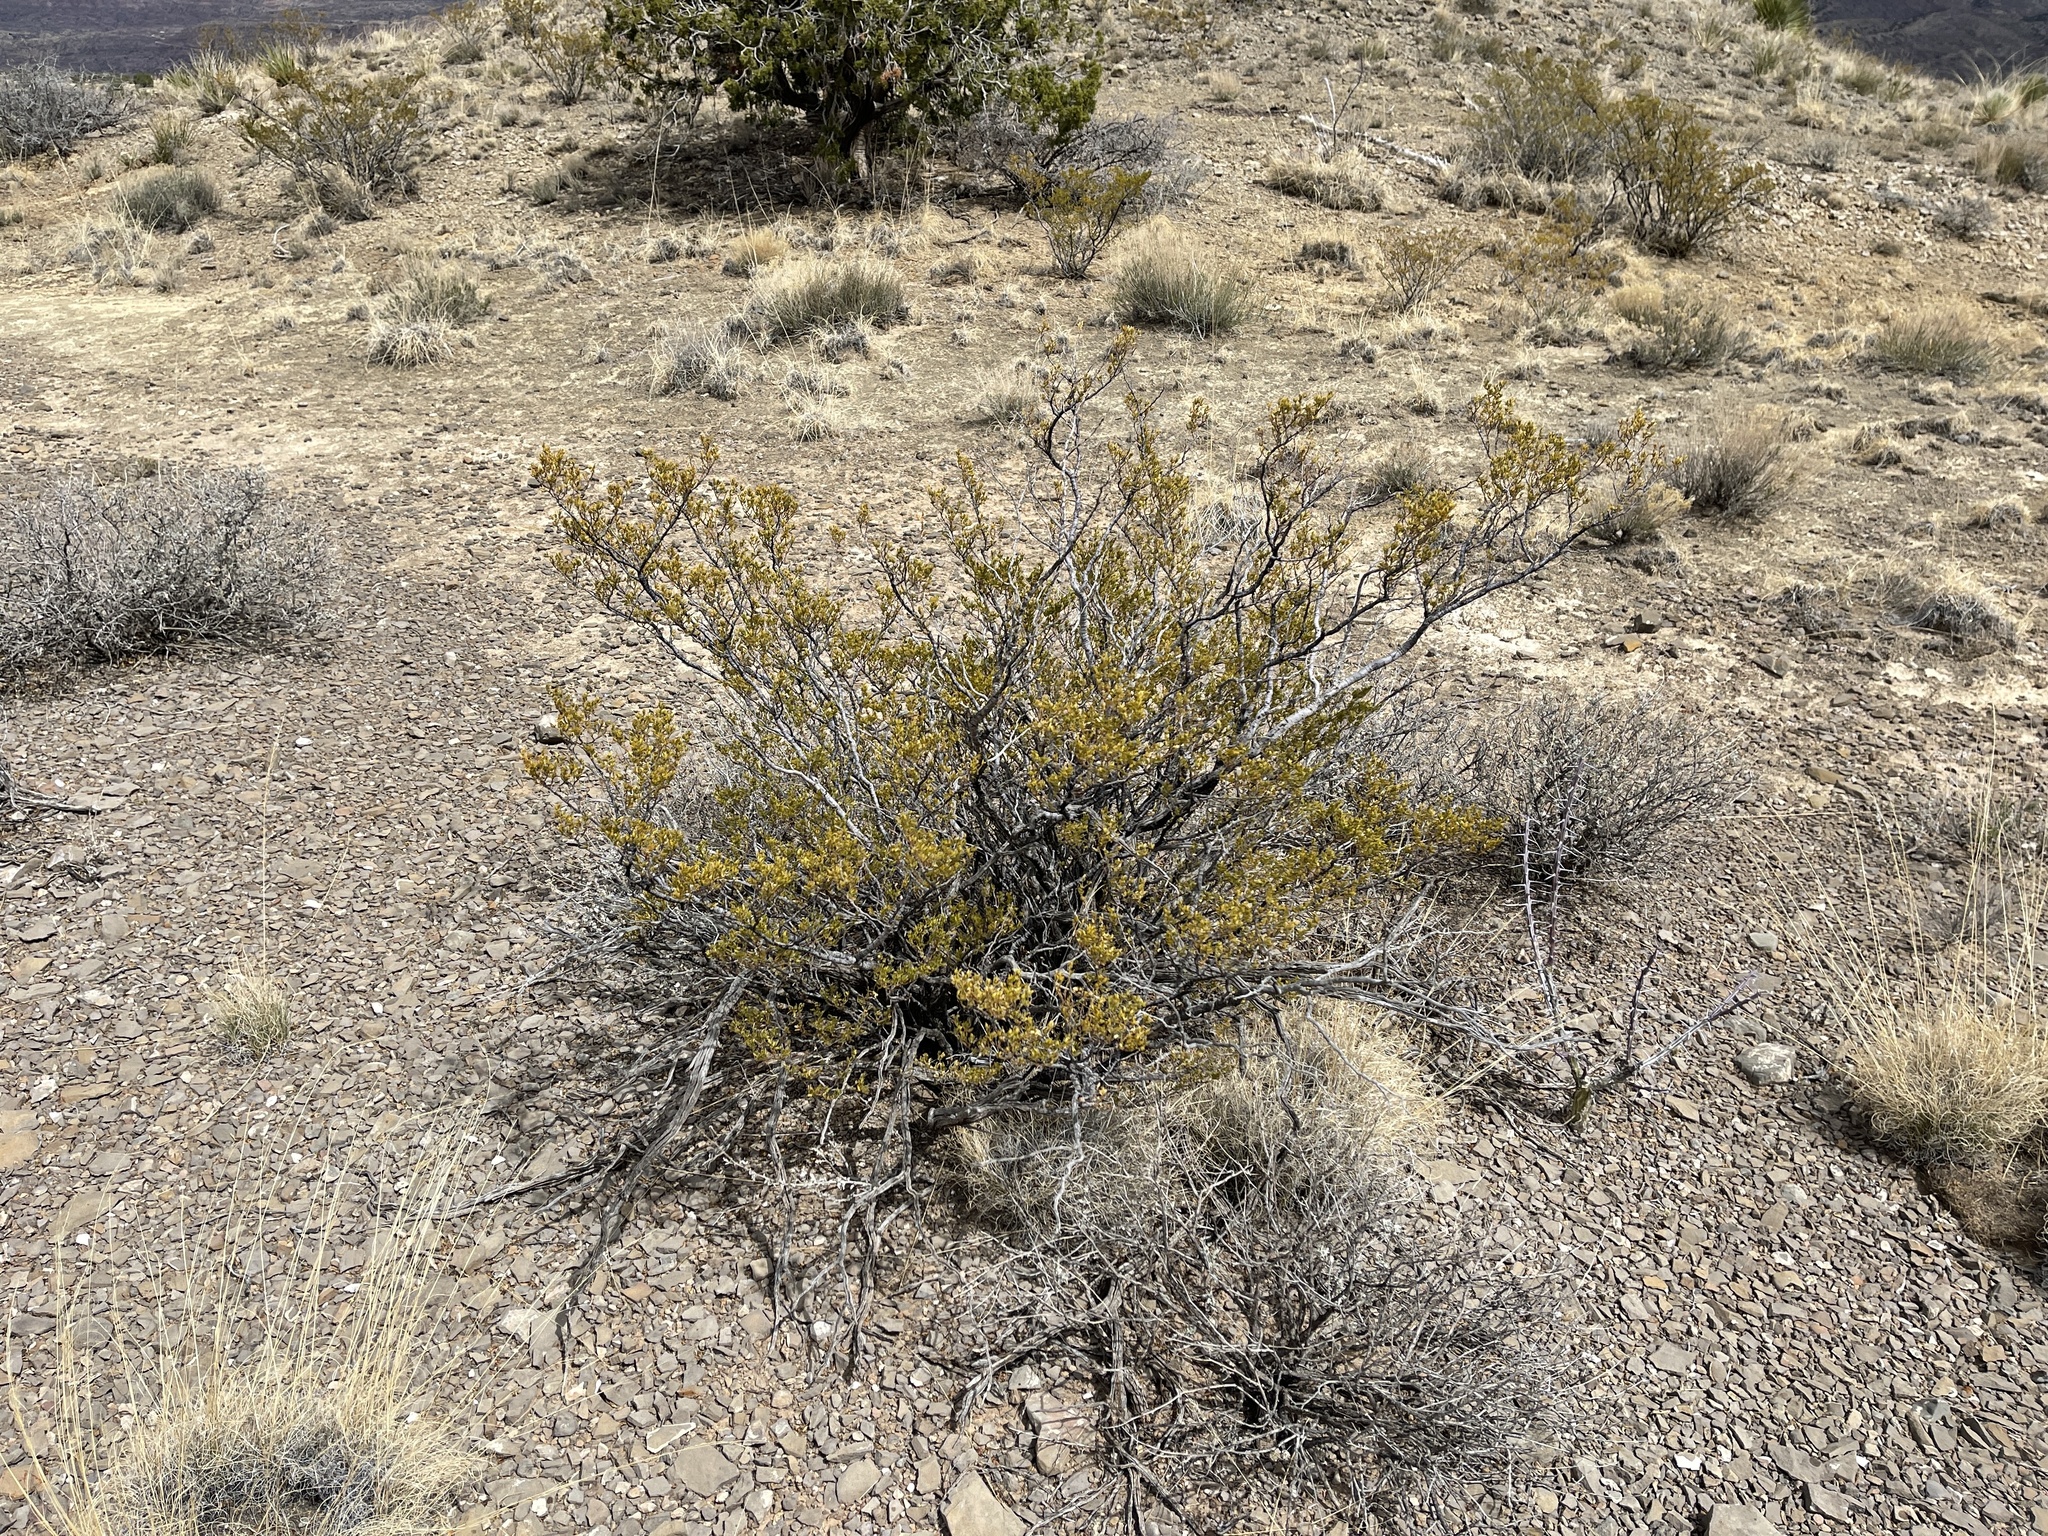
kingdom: Plantae
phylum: Tracheophyta
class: Magnoliopsida
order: Zygophyllales
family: Zygophyllaceae
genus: Larrea
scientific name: Larrea tridentata
